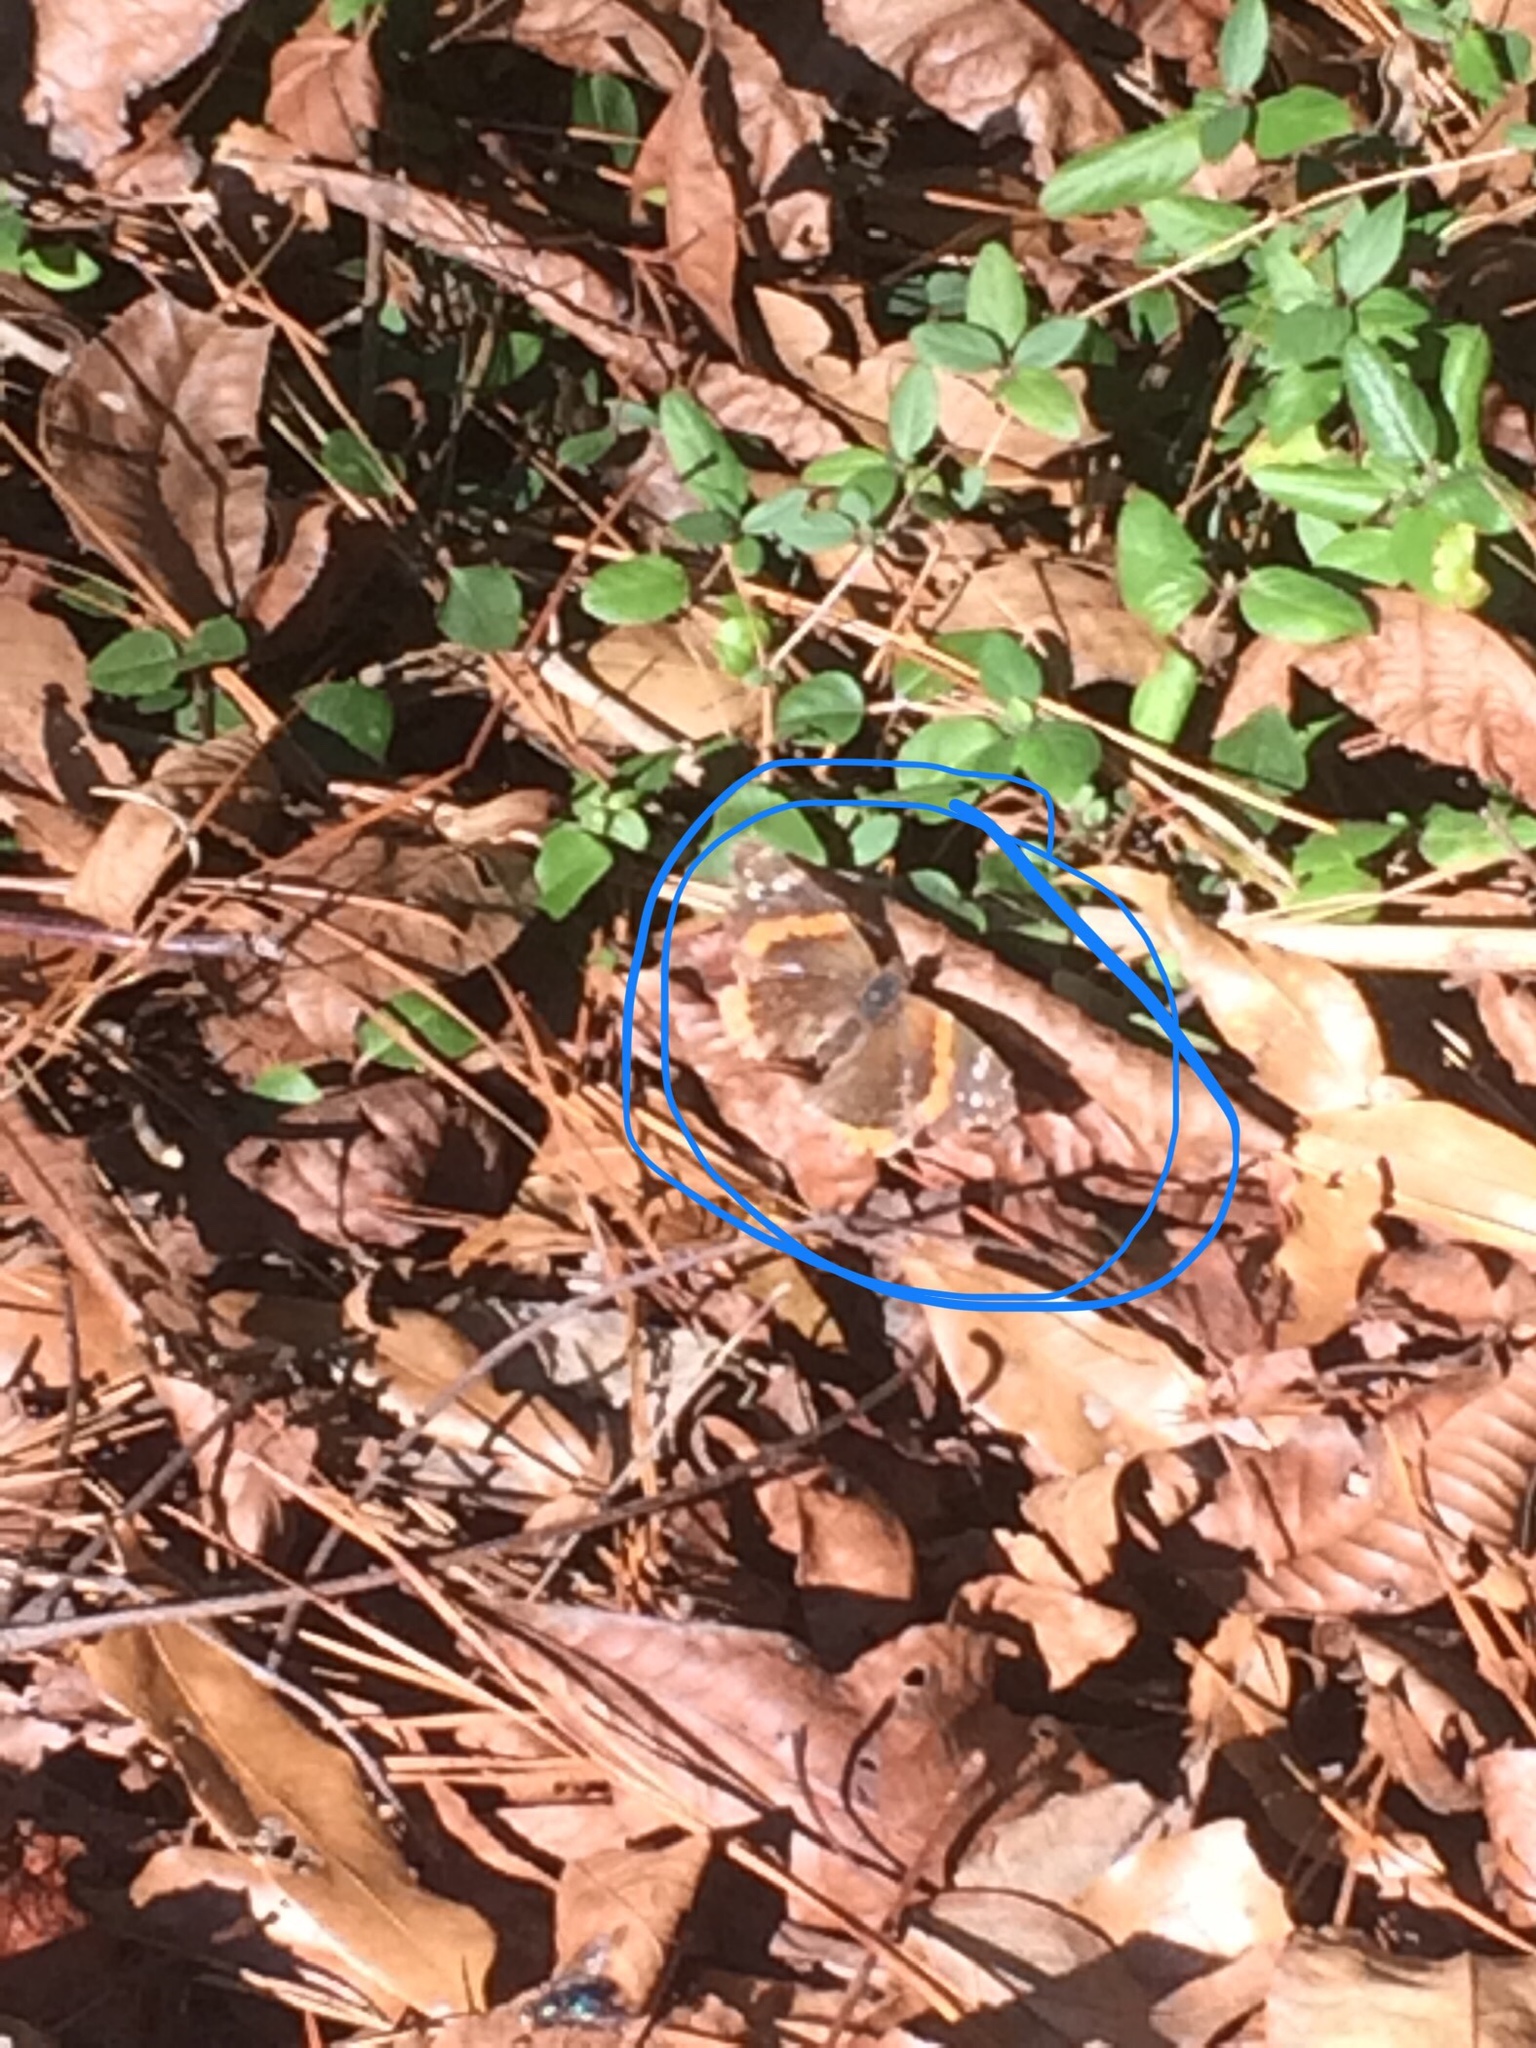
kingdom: Animalia
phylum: Arthropoda
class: Insecta
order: Lepidoptera
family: Nymphalidae
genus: Vanessa
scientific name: Vanessa atalanta
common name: Red admiral
